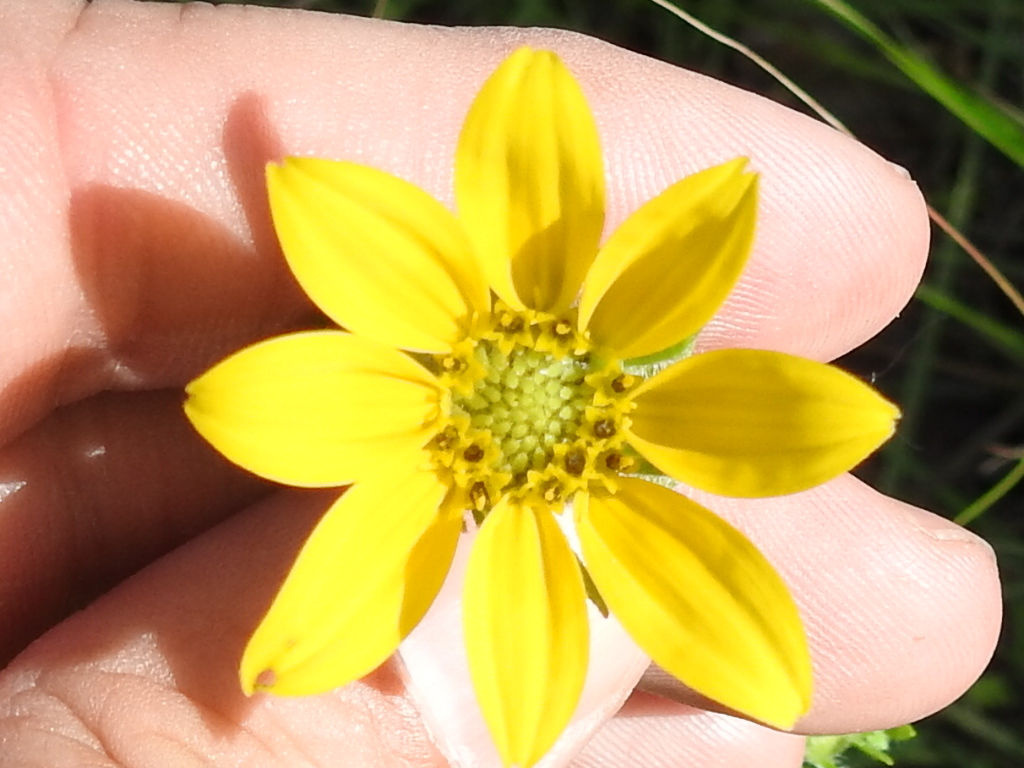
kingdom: Plantae
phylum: Tracheophyta
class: Magnoliopsida
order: Asterales
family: Asteraceae
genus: Engelmannia
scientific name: Engelmannia peristenia
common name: Engelmann's daisy
